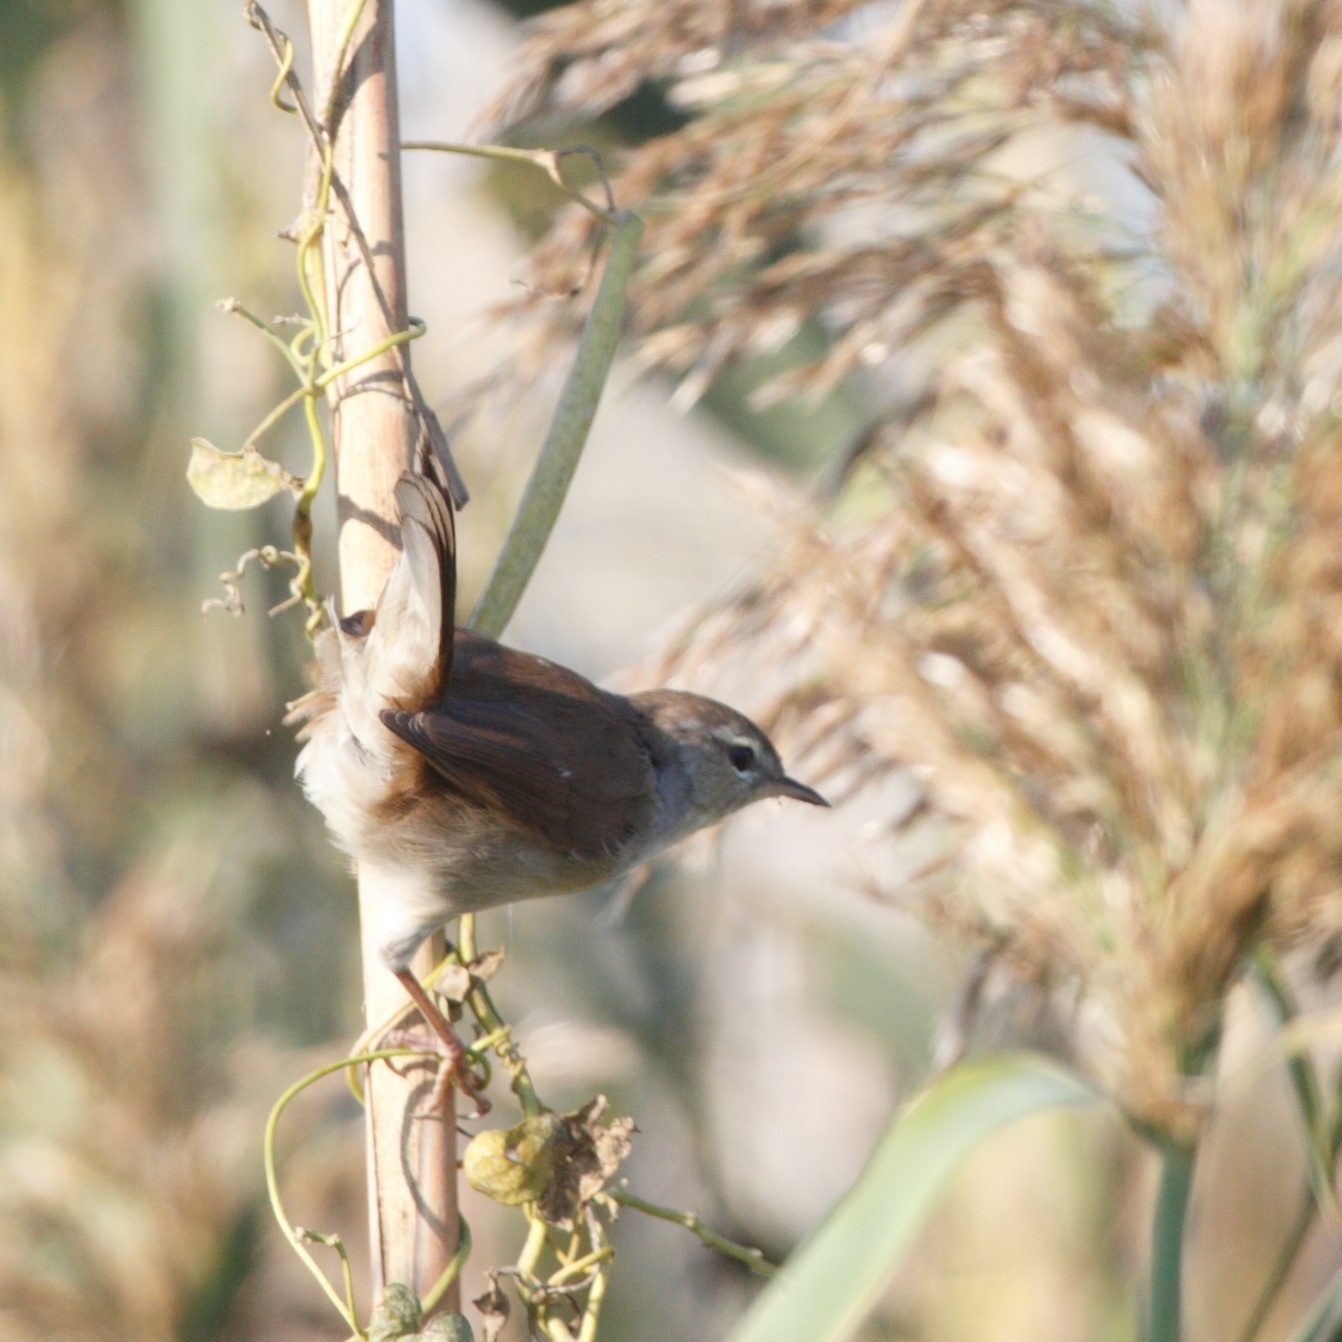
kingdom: Animalia
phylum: Chordata
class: Aves
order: Passeriformes
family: Cettiidae
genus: Cettia
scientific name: Cettia cetti
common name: Cetti's warbler
